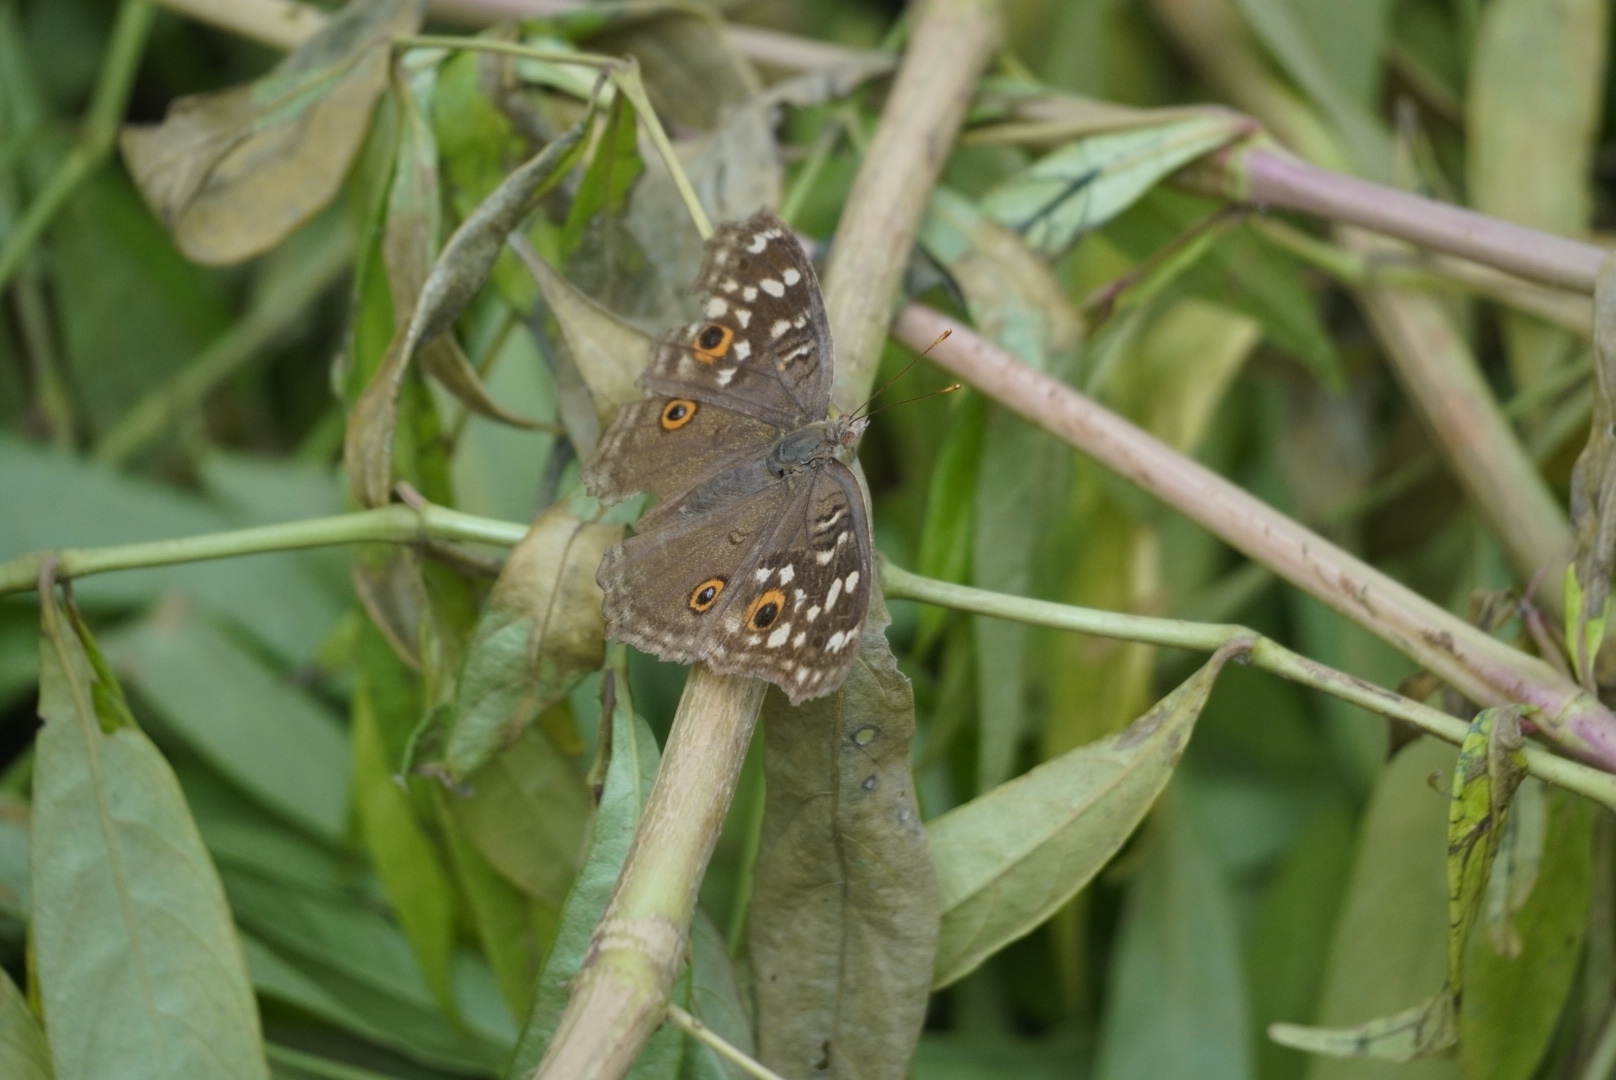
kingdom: Animalia
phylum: Arthropoda
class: Insecta
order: Lepidoptera
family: Nymphalidae
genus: Junonia
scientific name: Junonia lemonias
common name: Lemon pansy
